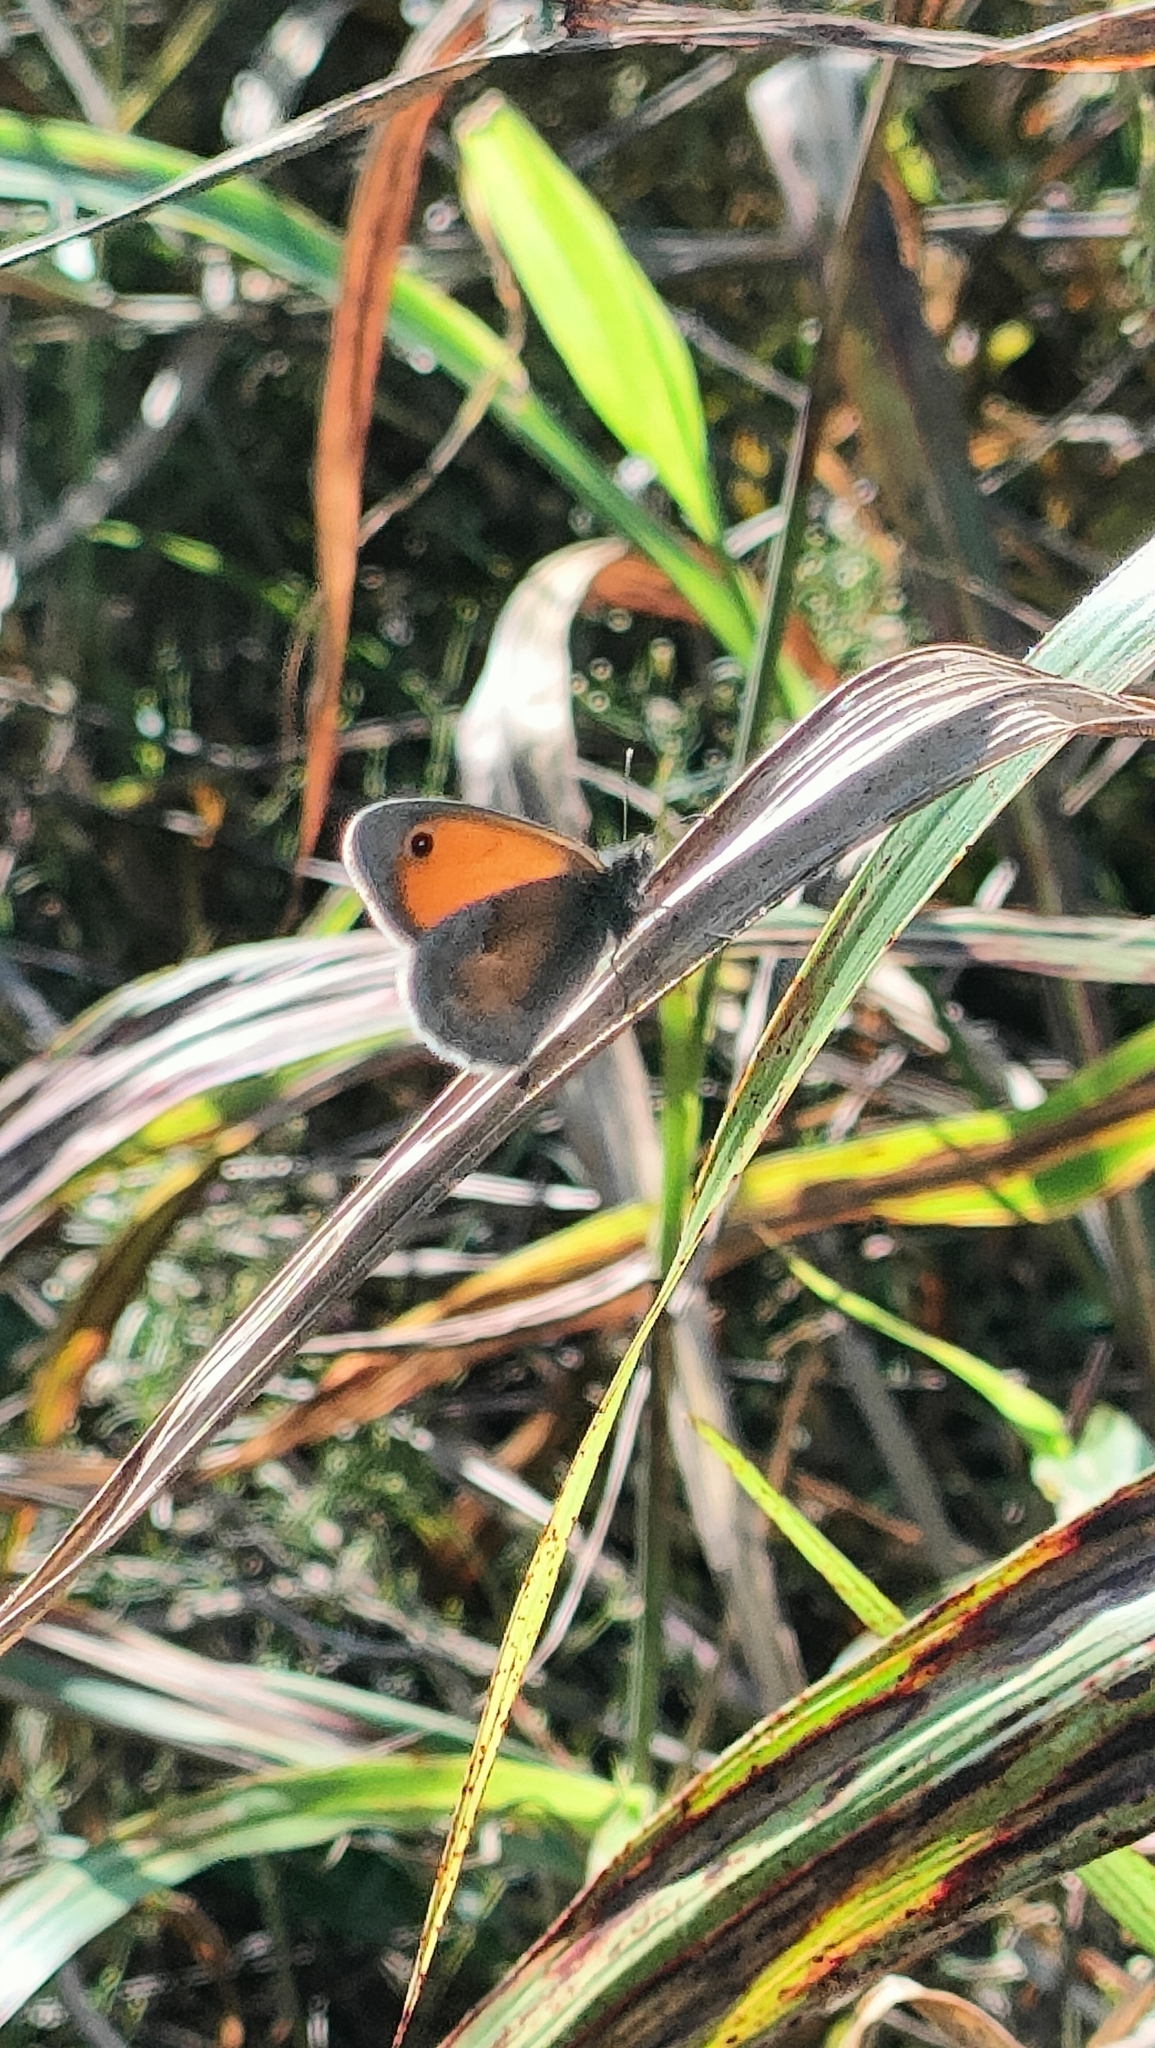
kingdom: Animalia
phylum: Arthropoda
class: Insecta
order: Lepidoptera
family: Nymphalidae
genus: Coenonympha
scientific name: Coenonympha pamphilus
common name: Small heath
